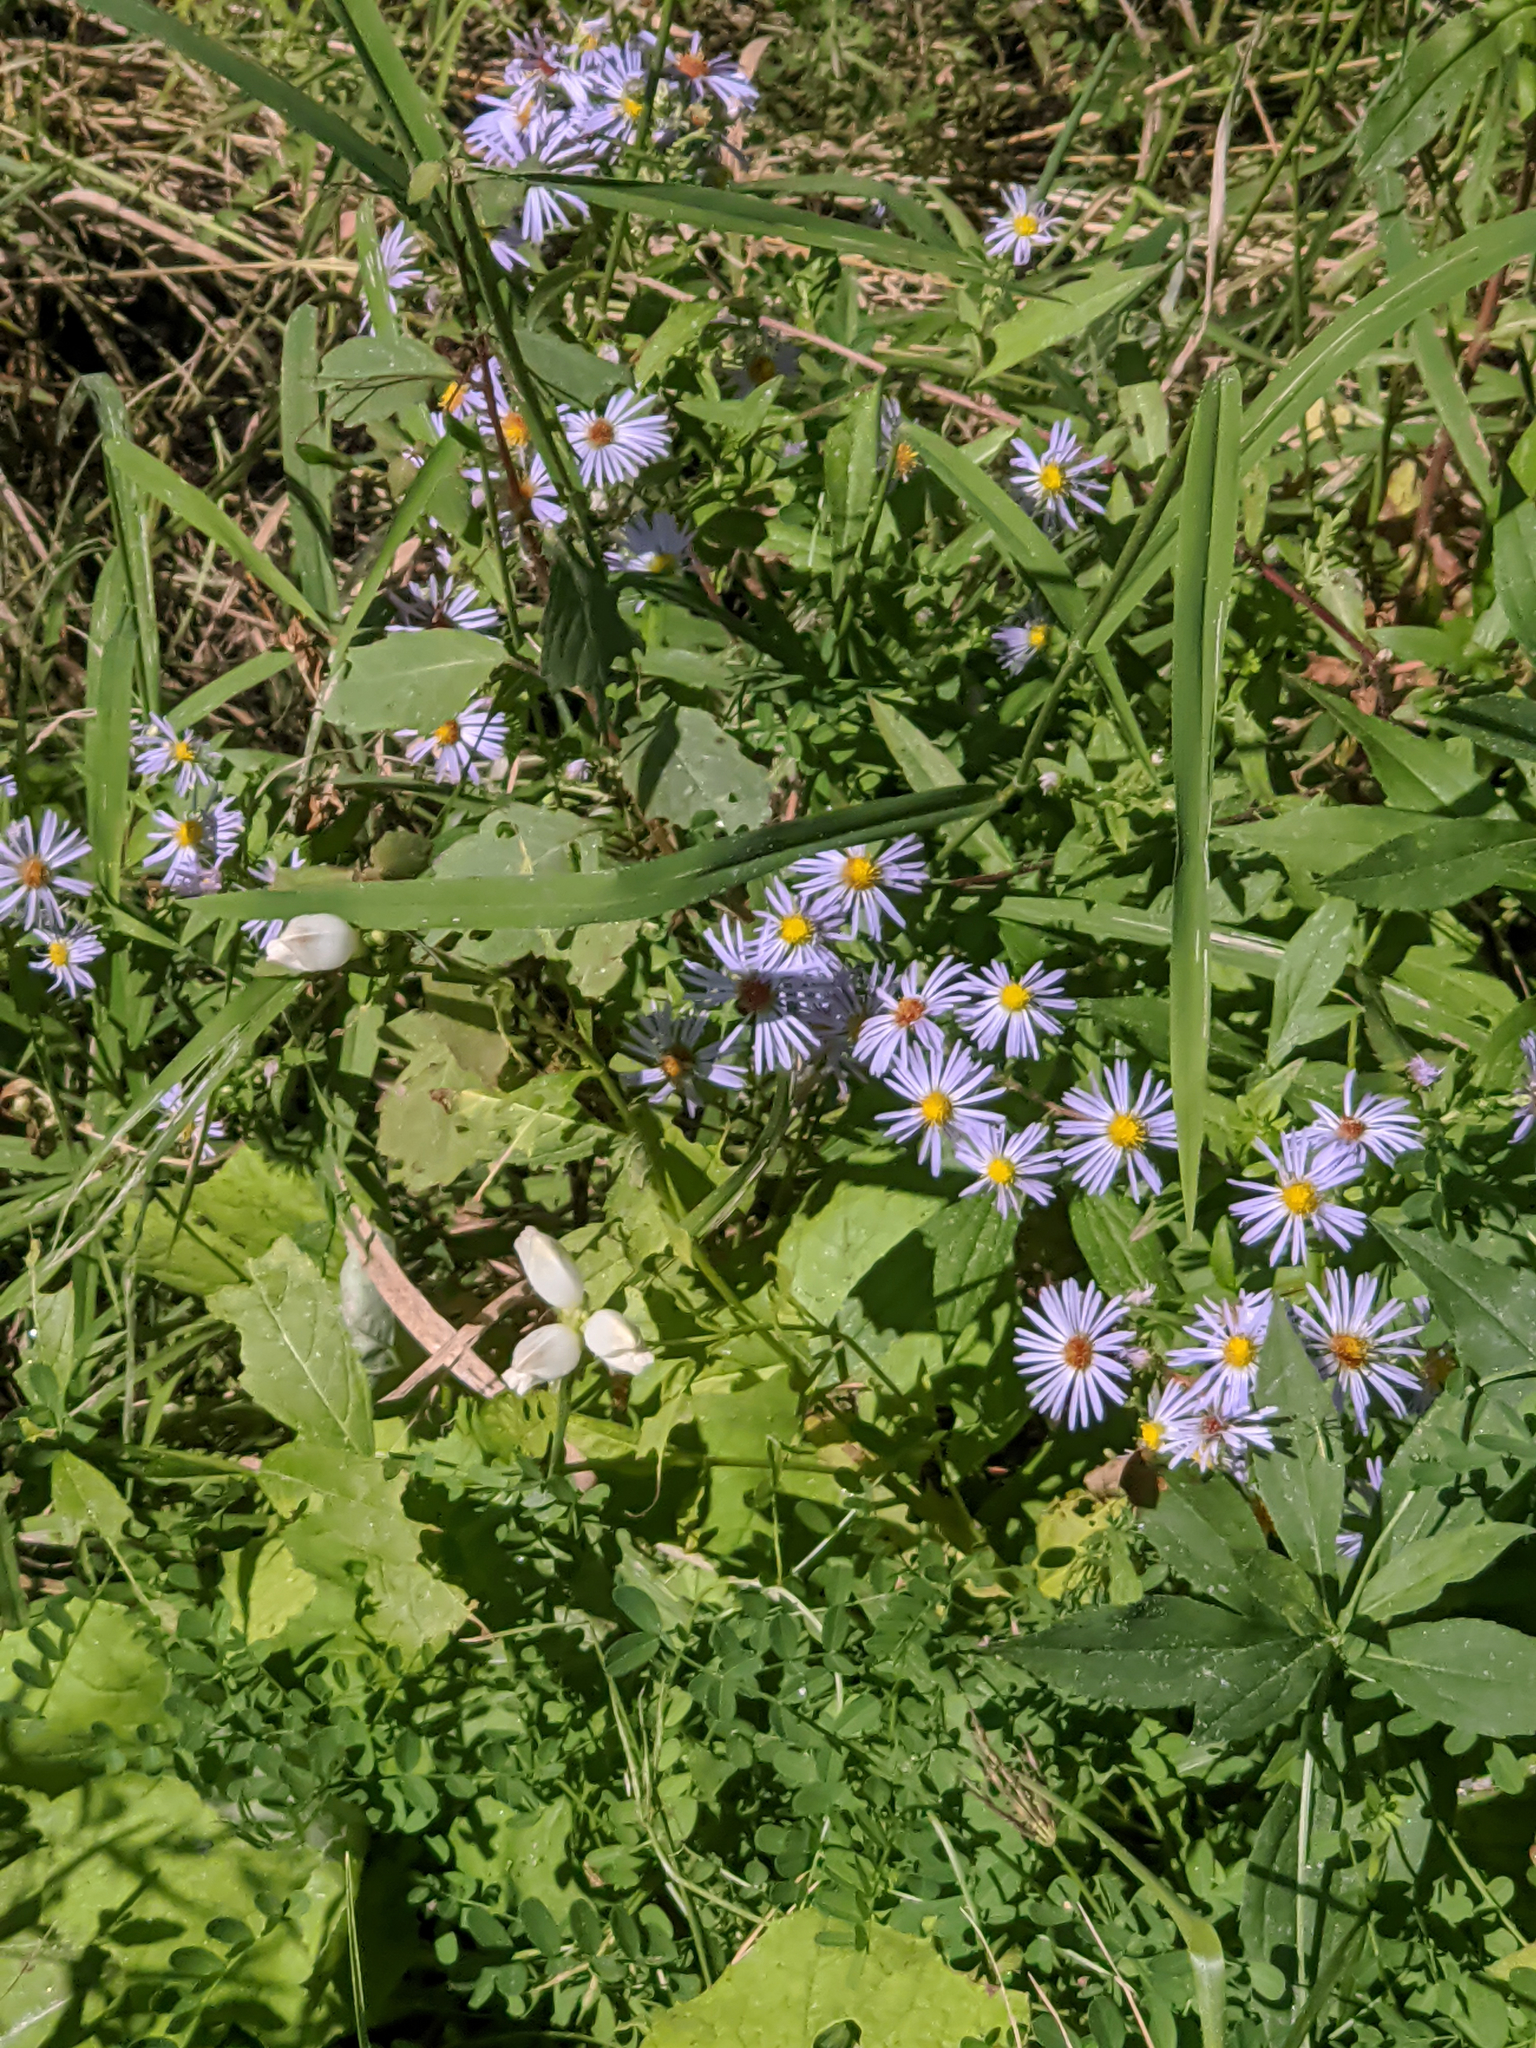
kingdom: Plantae
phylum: Tracheophyta
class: Magnoliopsida
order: Asterales
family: Asteraceae
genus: Symphyotrichum
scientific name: Symphyotrichum laeve
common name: Glaucous aster
